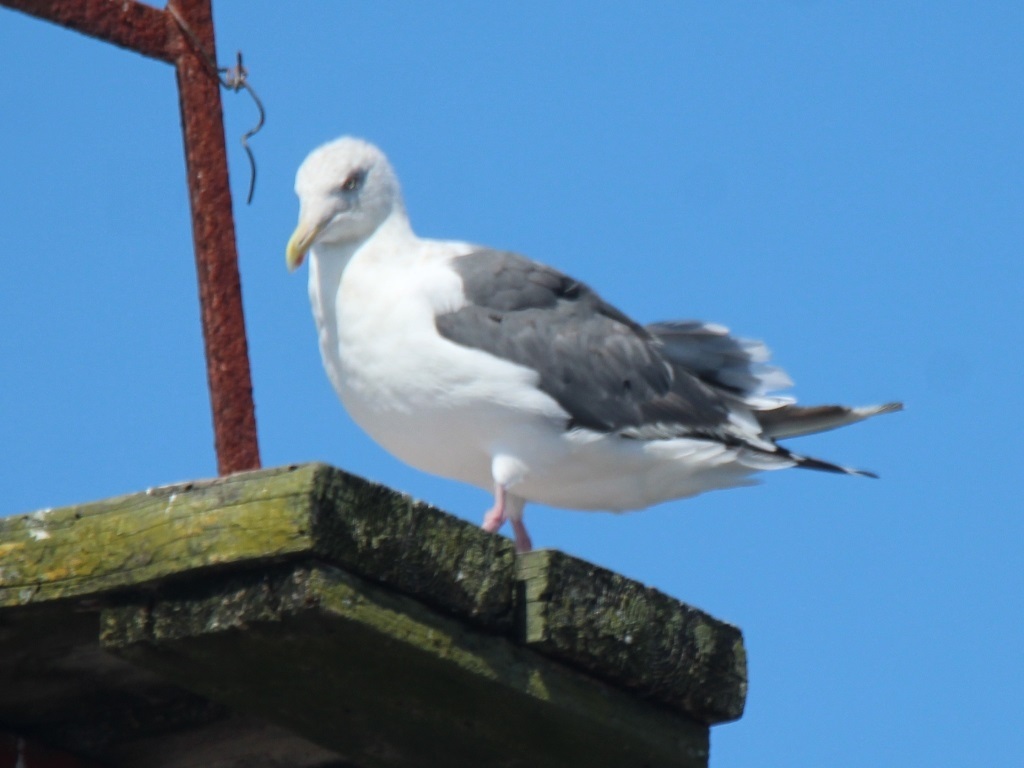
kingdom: Animalia
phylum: Chordata
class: Aves
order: Charadriiformes
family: Laridae
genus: Larus
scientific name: Larus schistisagus
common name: Slaty-backed gull
